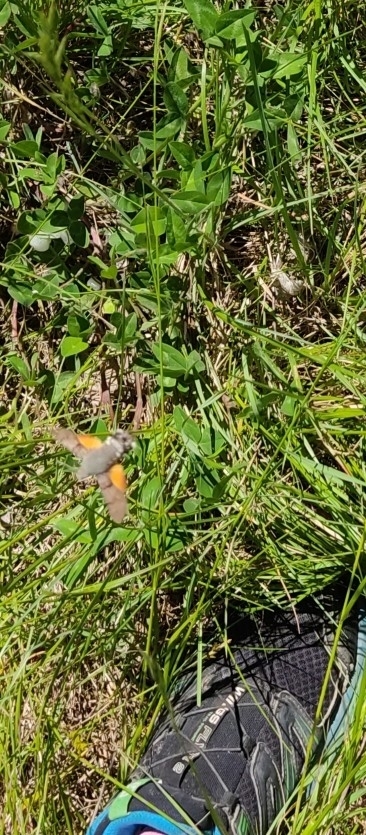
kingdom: Animalia
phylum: Arthropoda
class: Insecta
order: Lepidoptera
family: Sphingidae
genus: Macroglossum
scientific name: Macroglossum stellatarum
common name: Humming-bird hawk-moth
